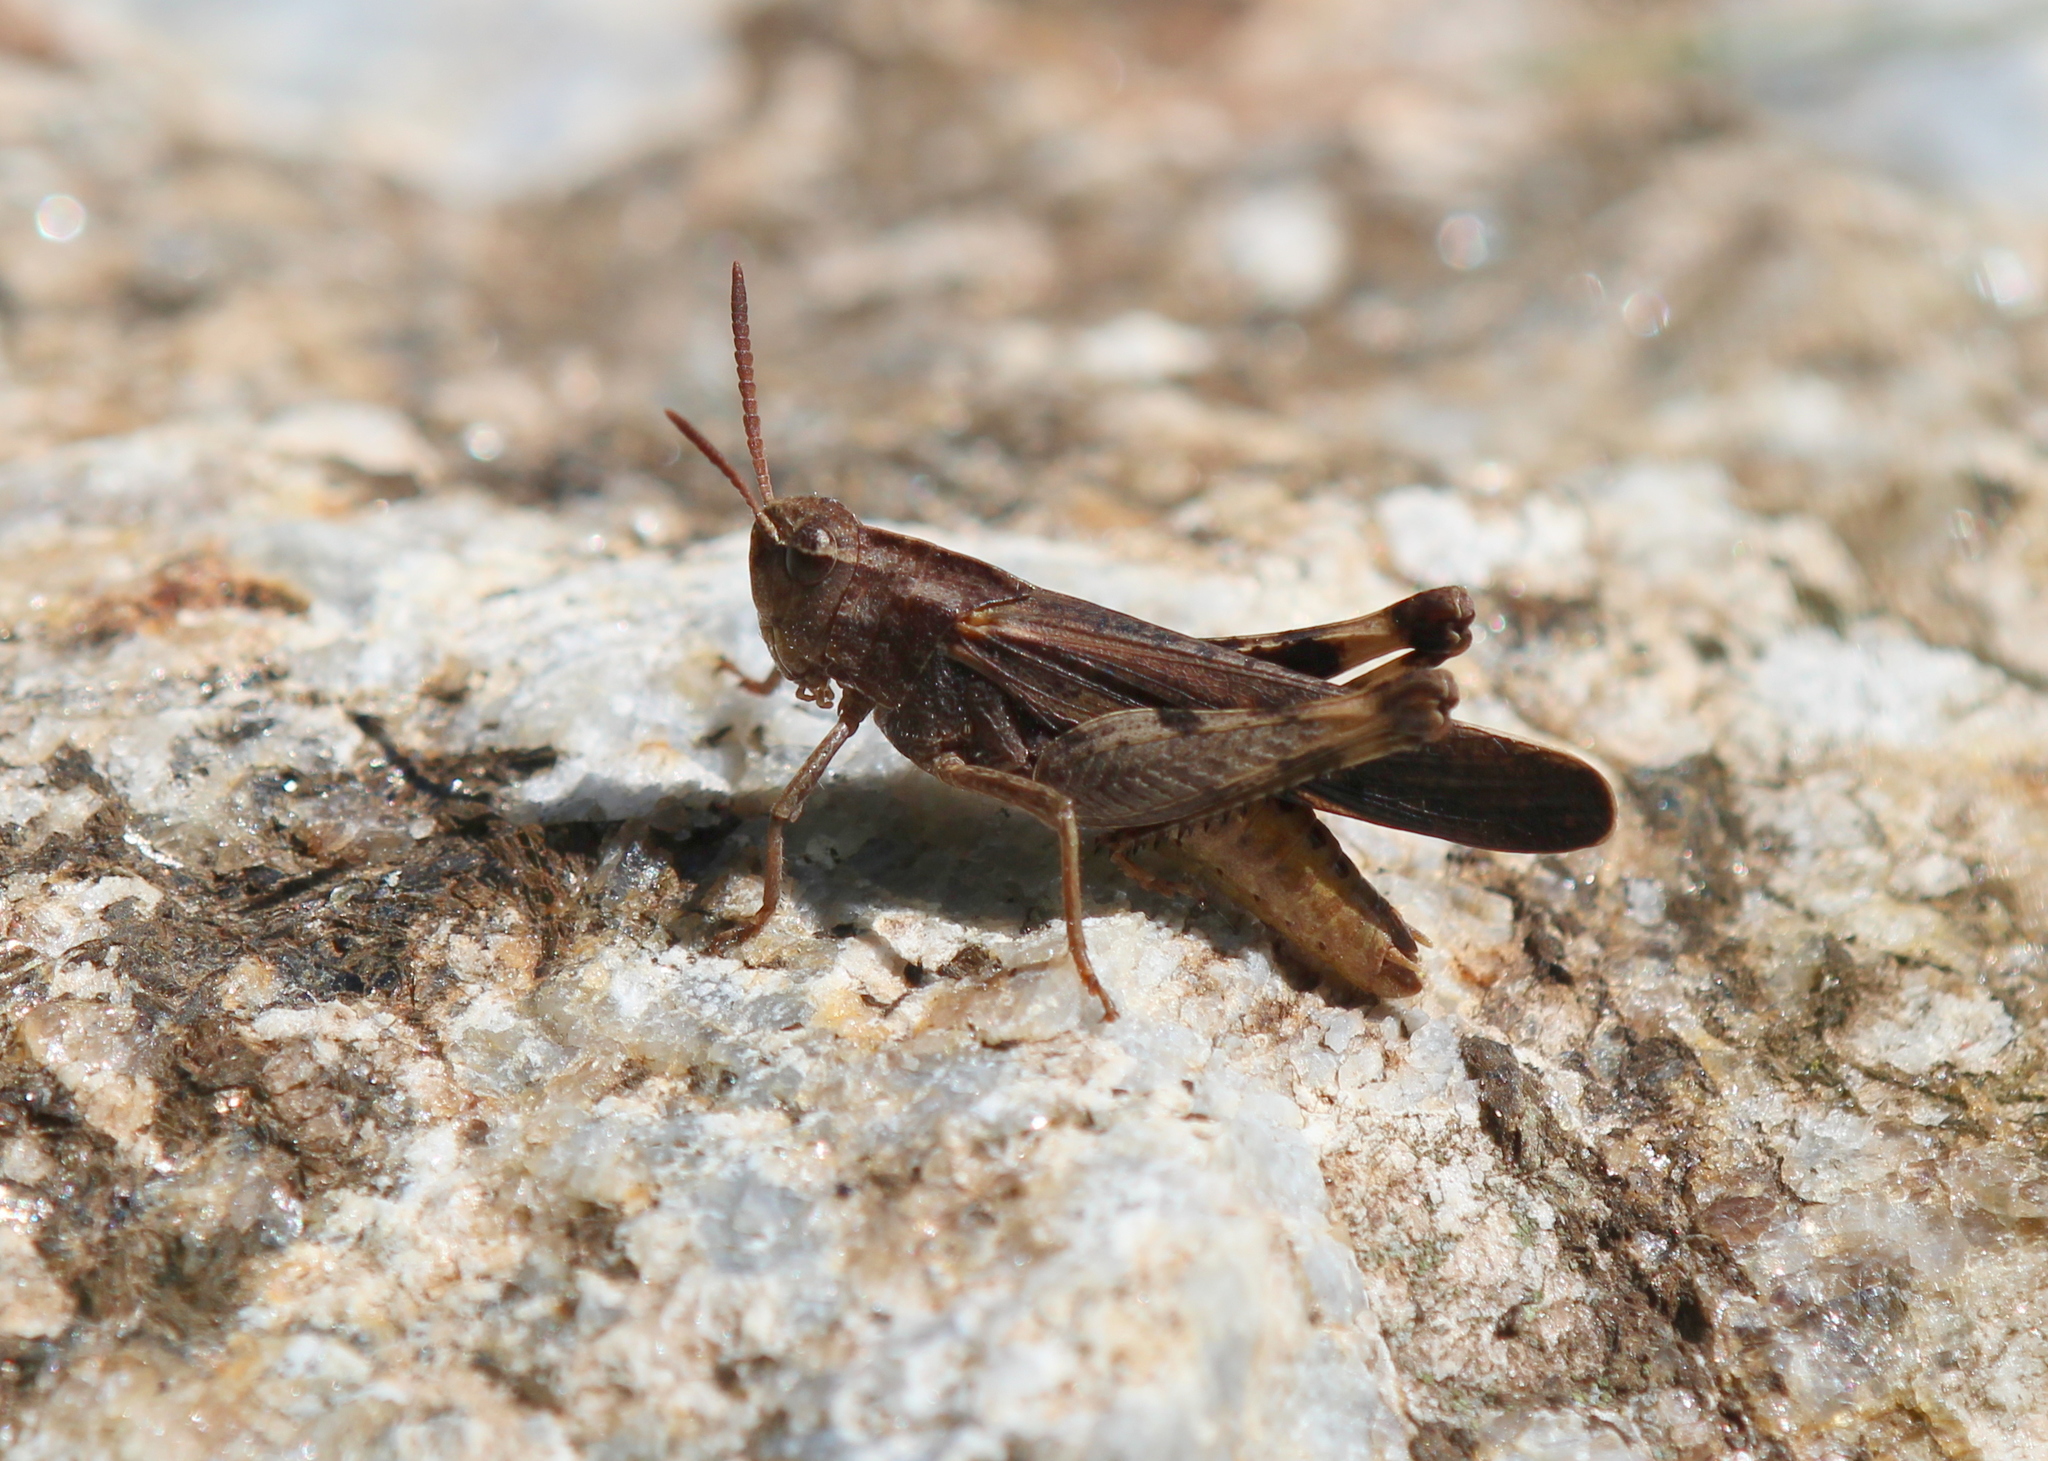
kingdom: Animalia
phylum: Arthropoda
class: Insecta
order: Orthoptera
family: Acrididae
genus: Chortophaga
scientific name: Chortophaga viridifasciata
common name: Green-striped grasshopper
